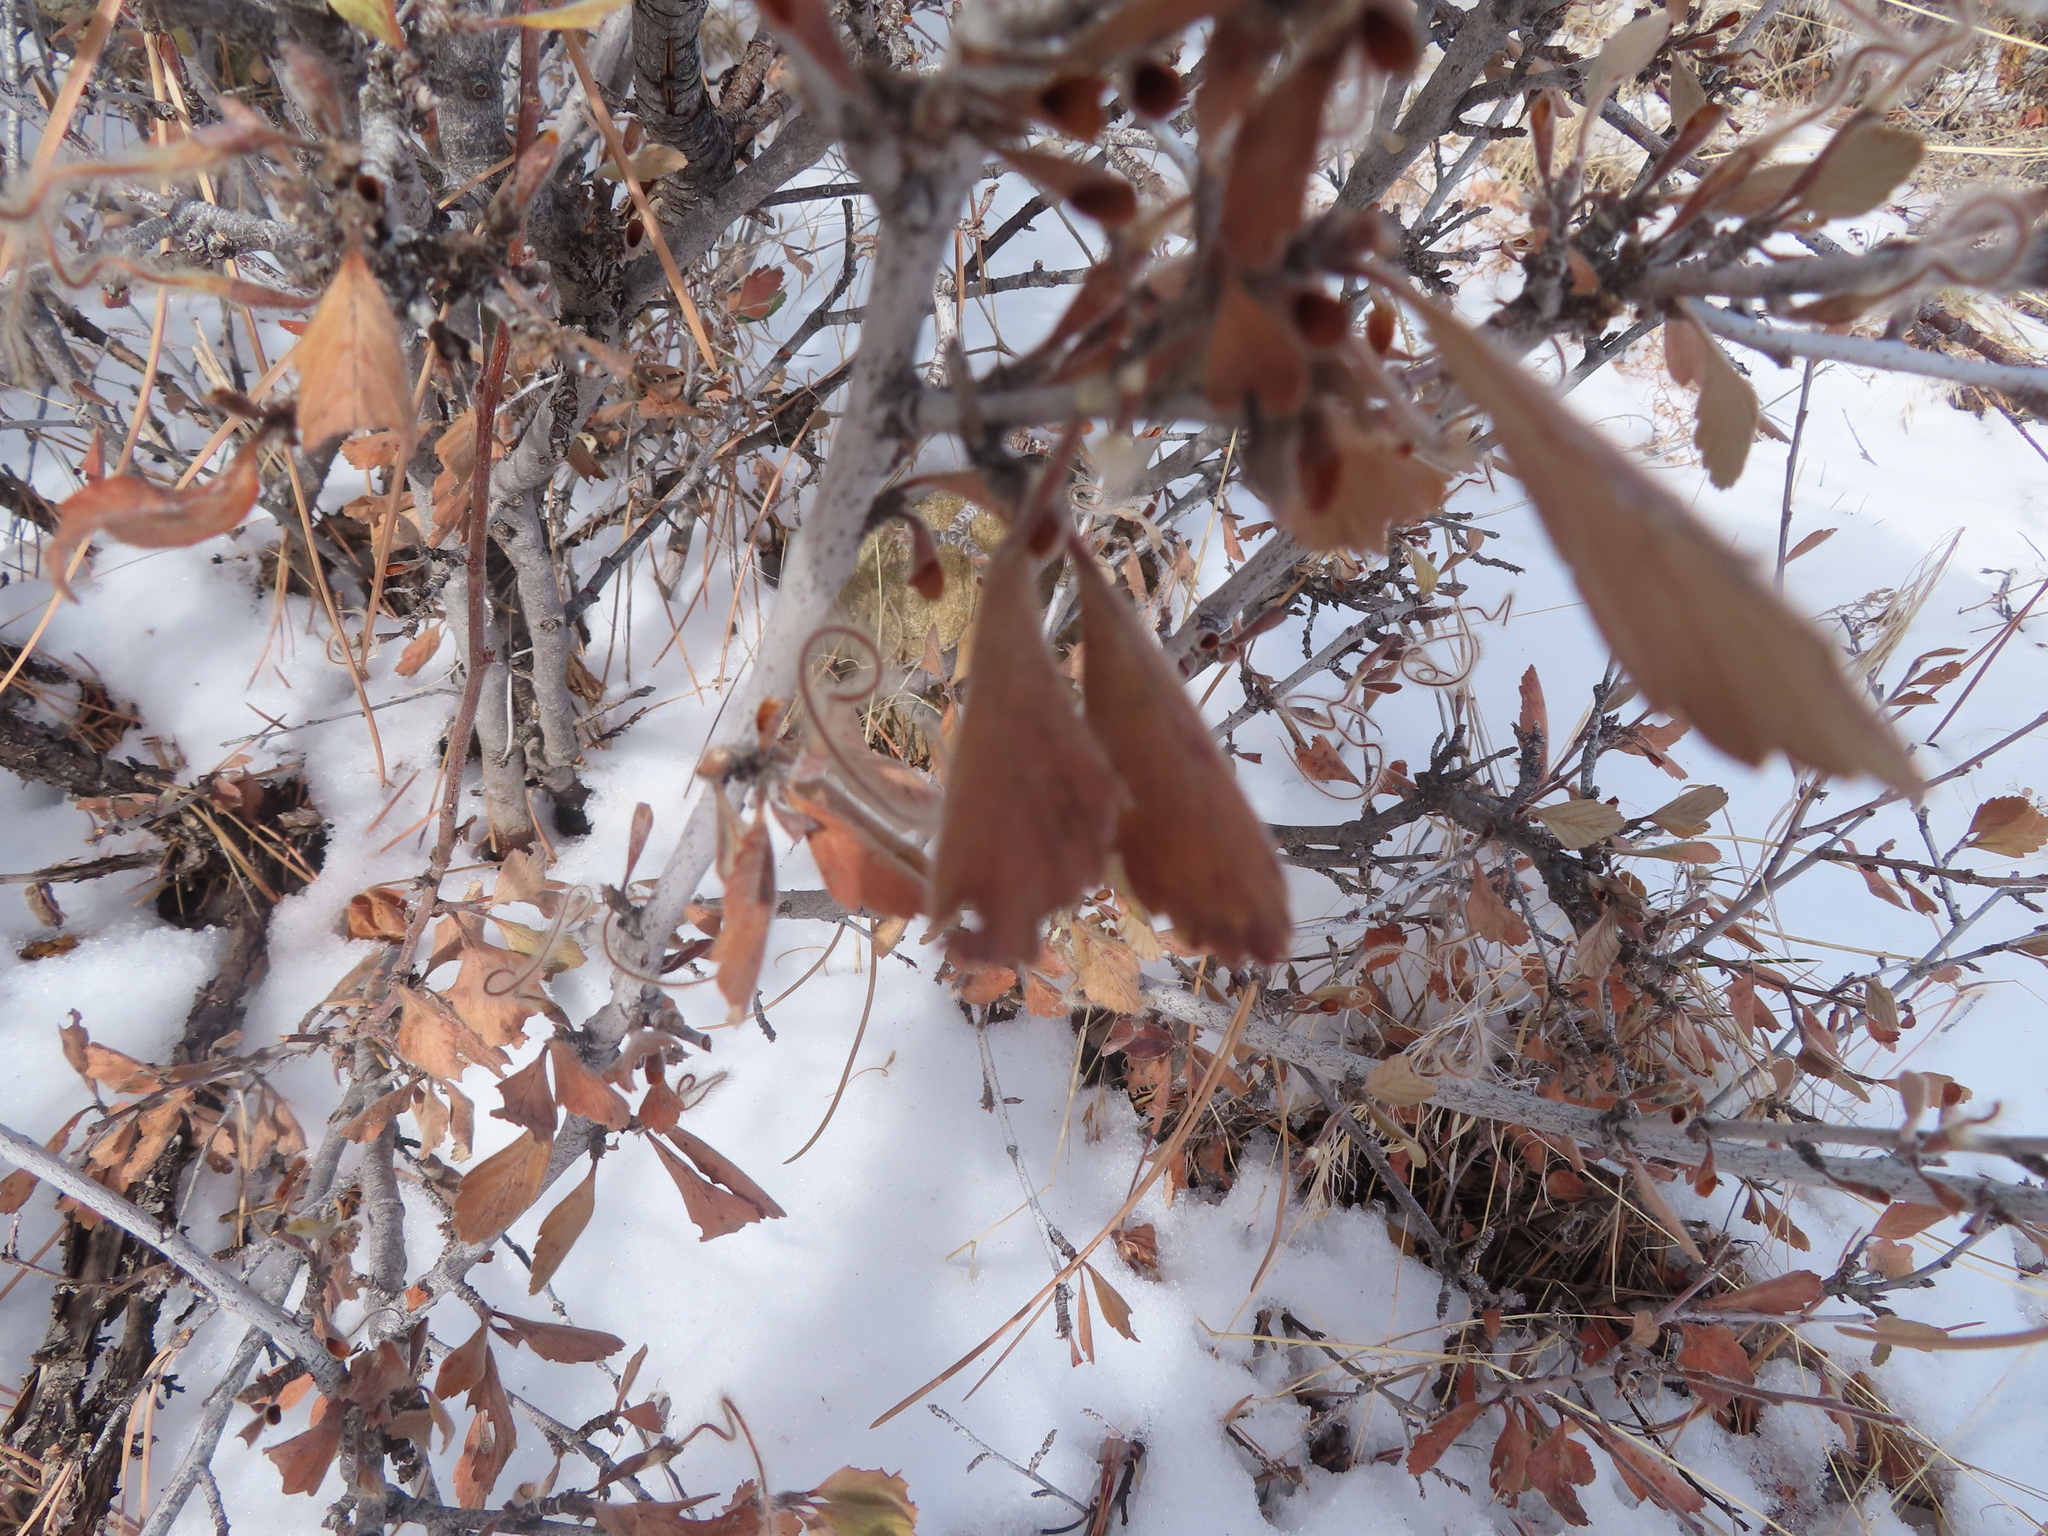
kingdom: Plantae
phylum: Tracheophyta
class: Magnoliopsida
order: Rosales
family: Rosaceae
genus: Cercocarpus
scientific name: Cercocarpus montanus
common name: Alder-leaf cercocarpus
